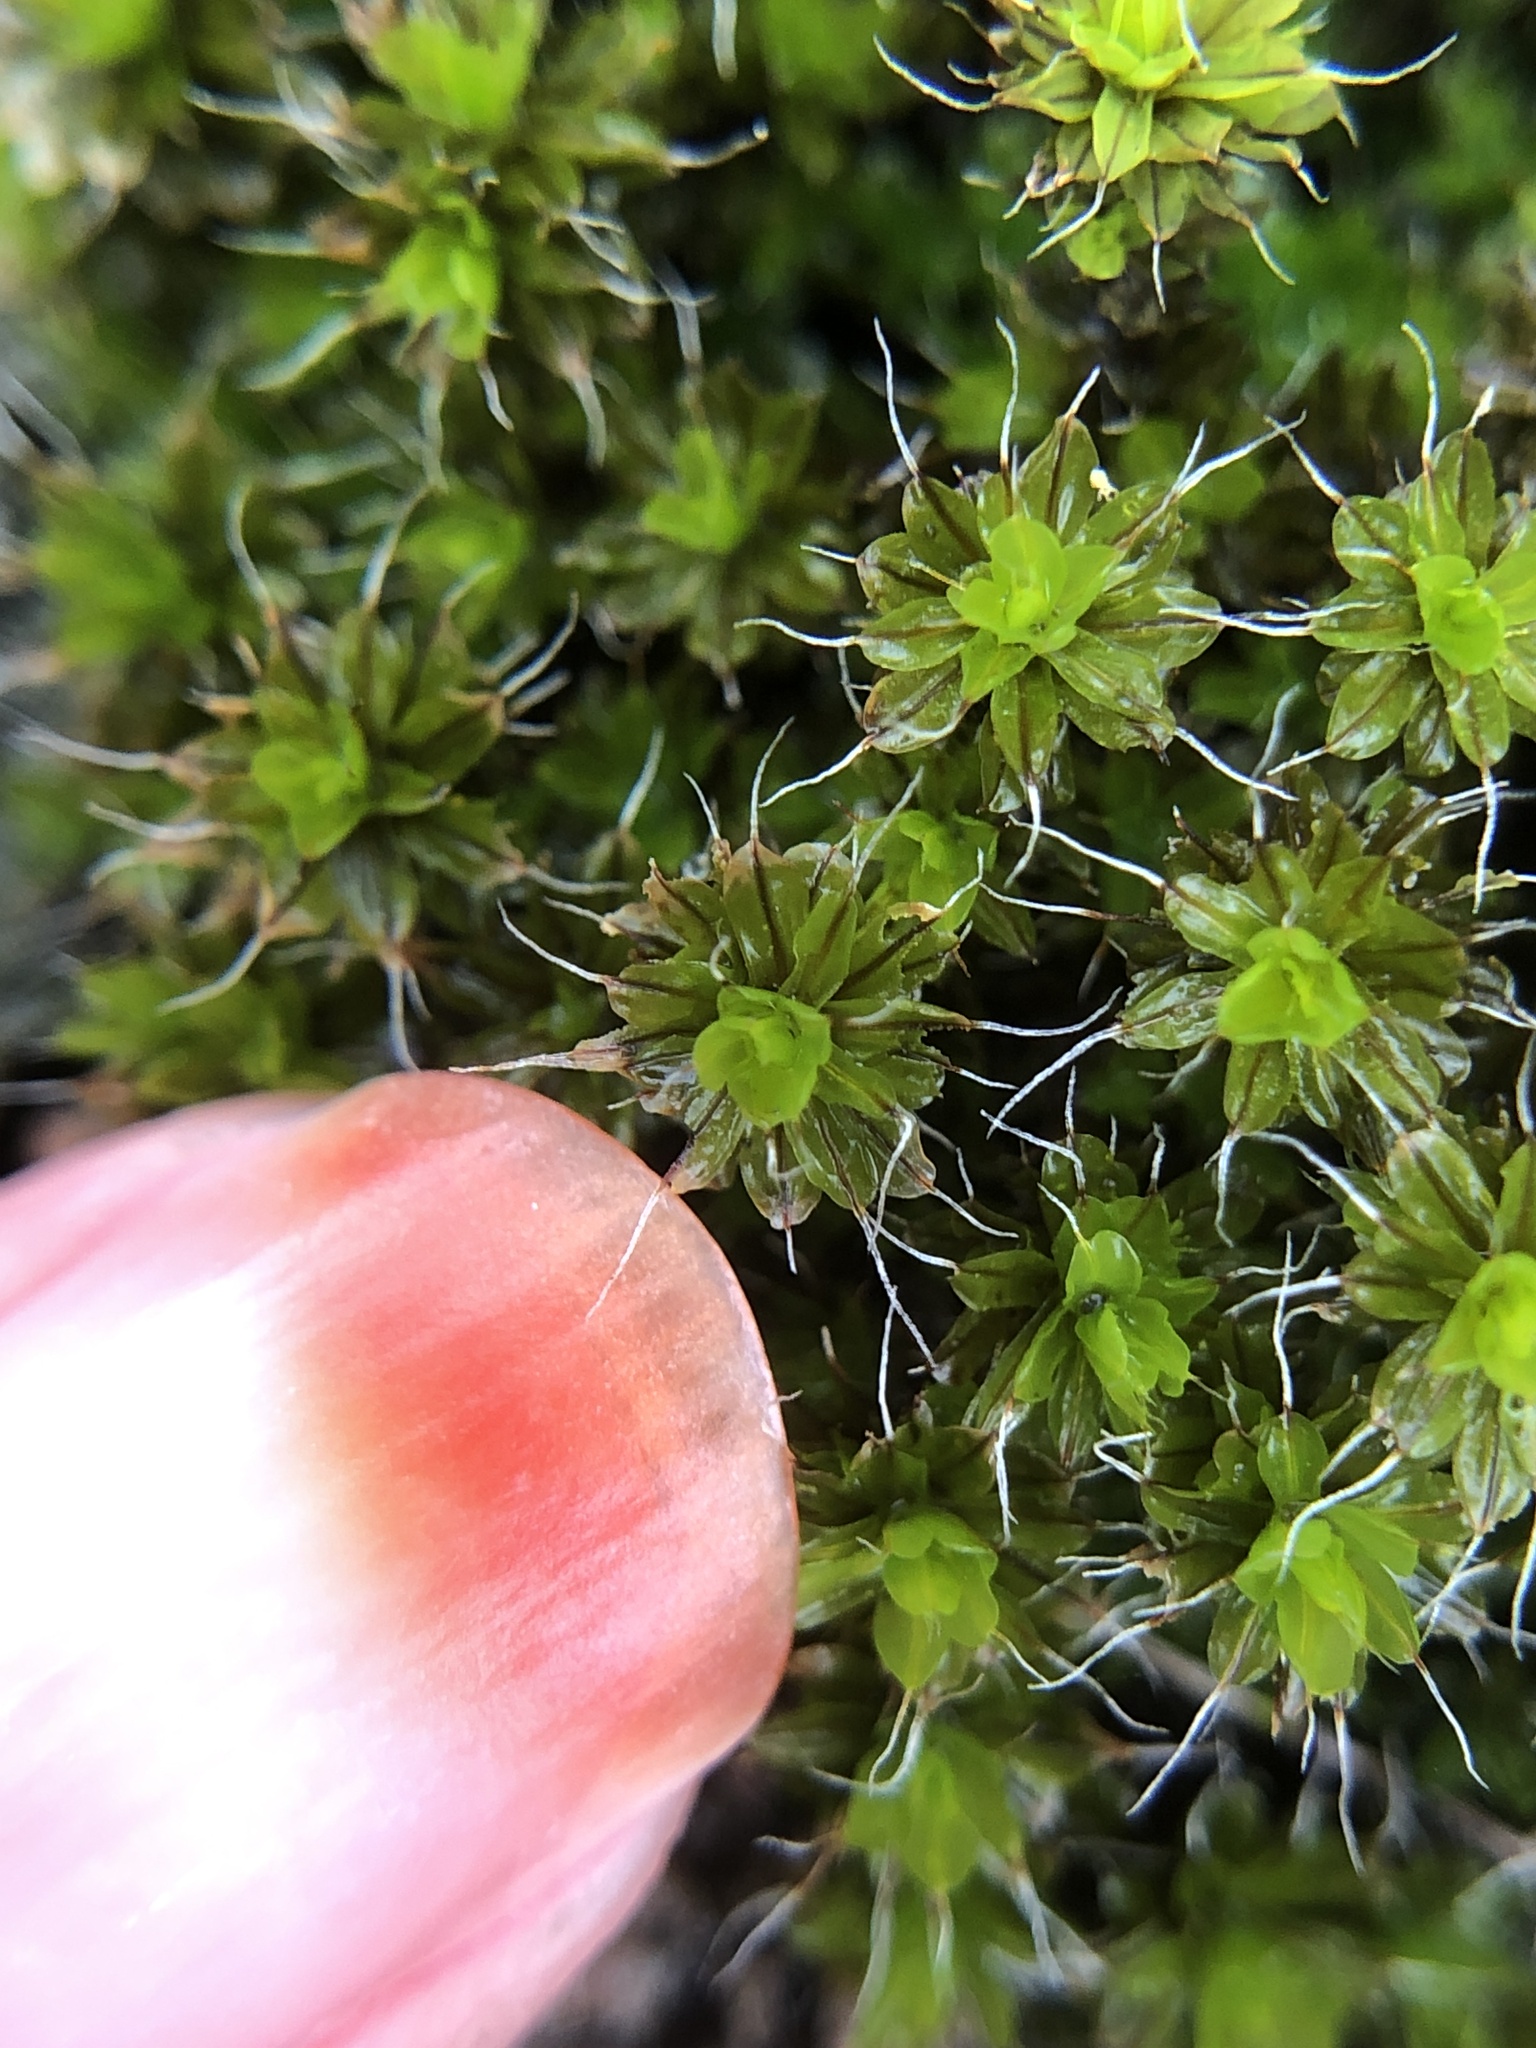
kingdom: Plantae
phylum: Bryophyta
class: Bryopsida
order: Pottiales
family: Pottiaceae
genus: Syntrichia
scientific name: Syntrichia montana
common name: Intermediate screw-moss
